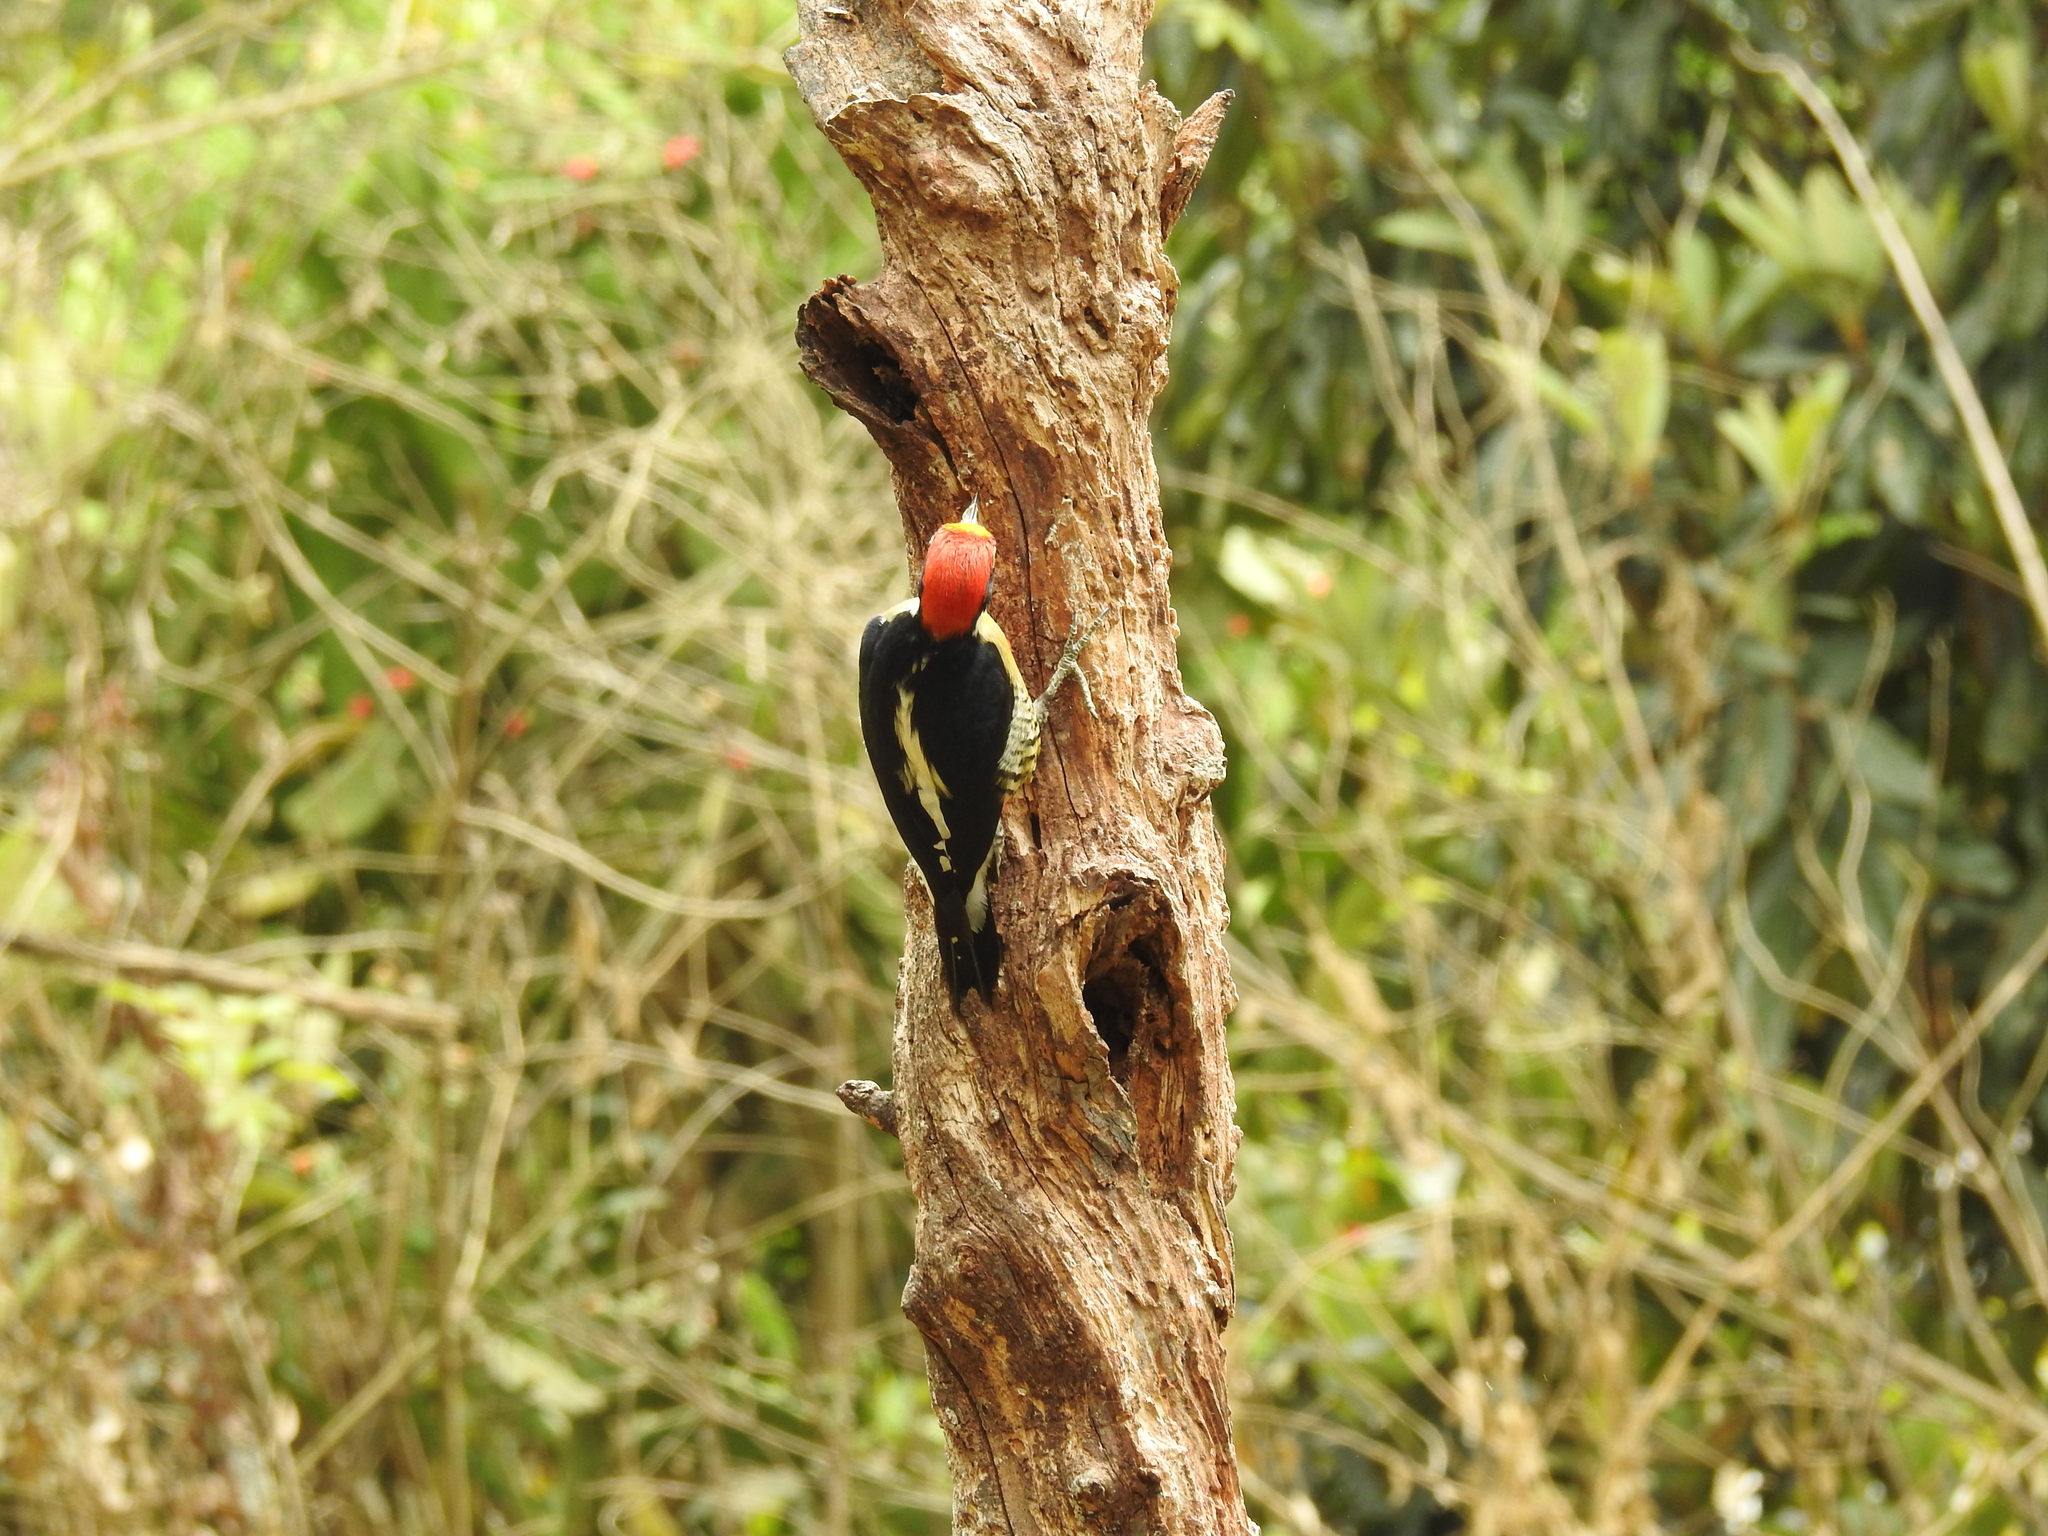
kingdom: Animalia
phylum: Chordata
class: Aves
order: Piciformes
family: Picidae
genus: Melanerpes
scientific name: Melanerpes flavifrons
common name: Yellow-fronted woodpecker
